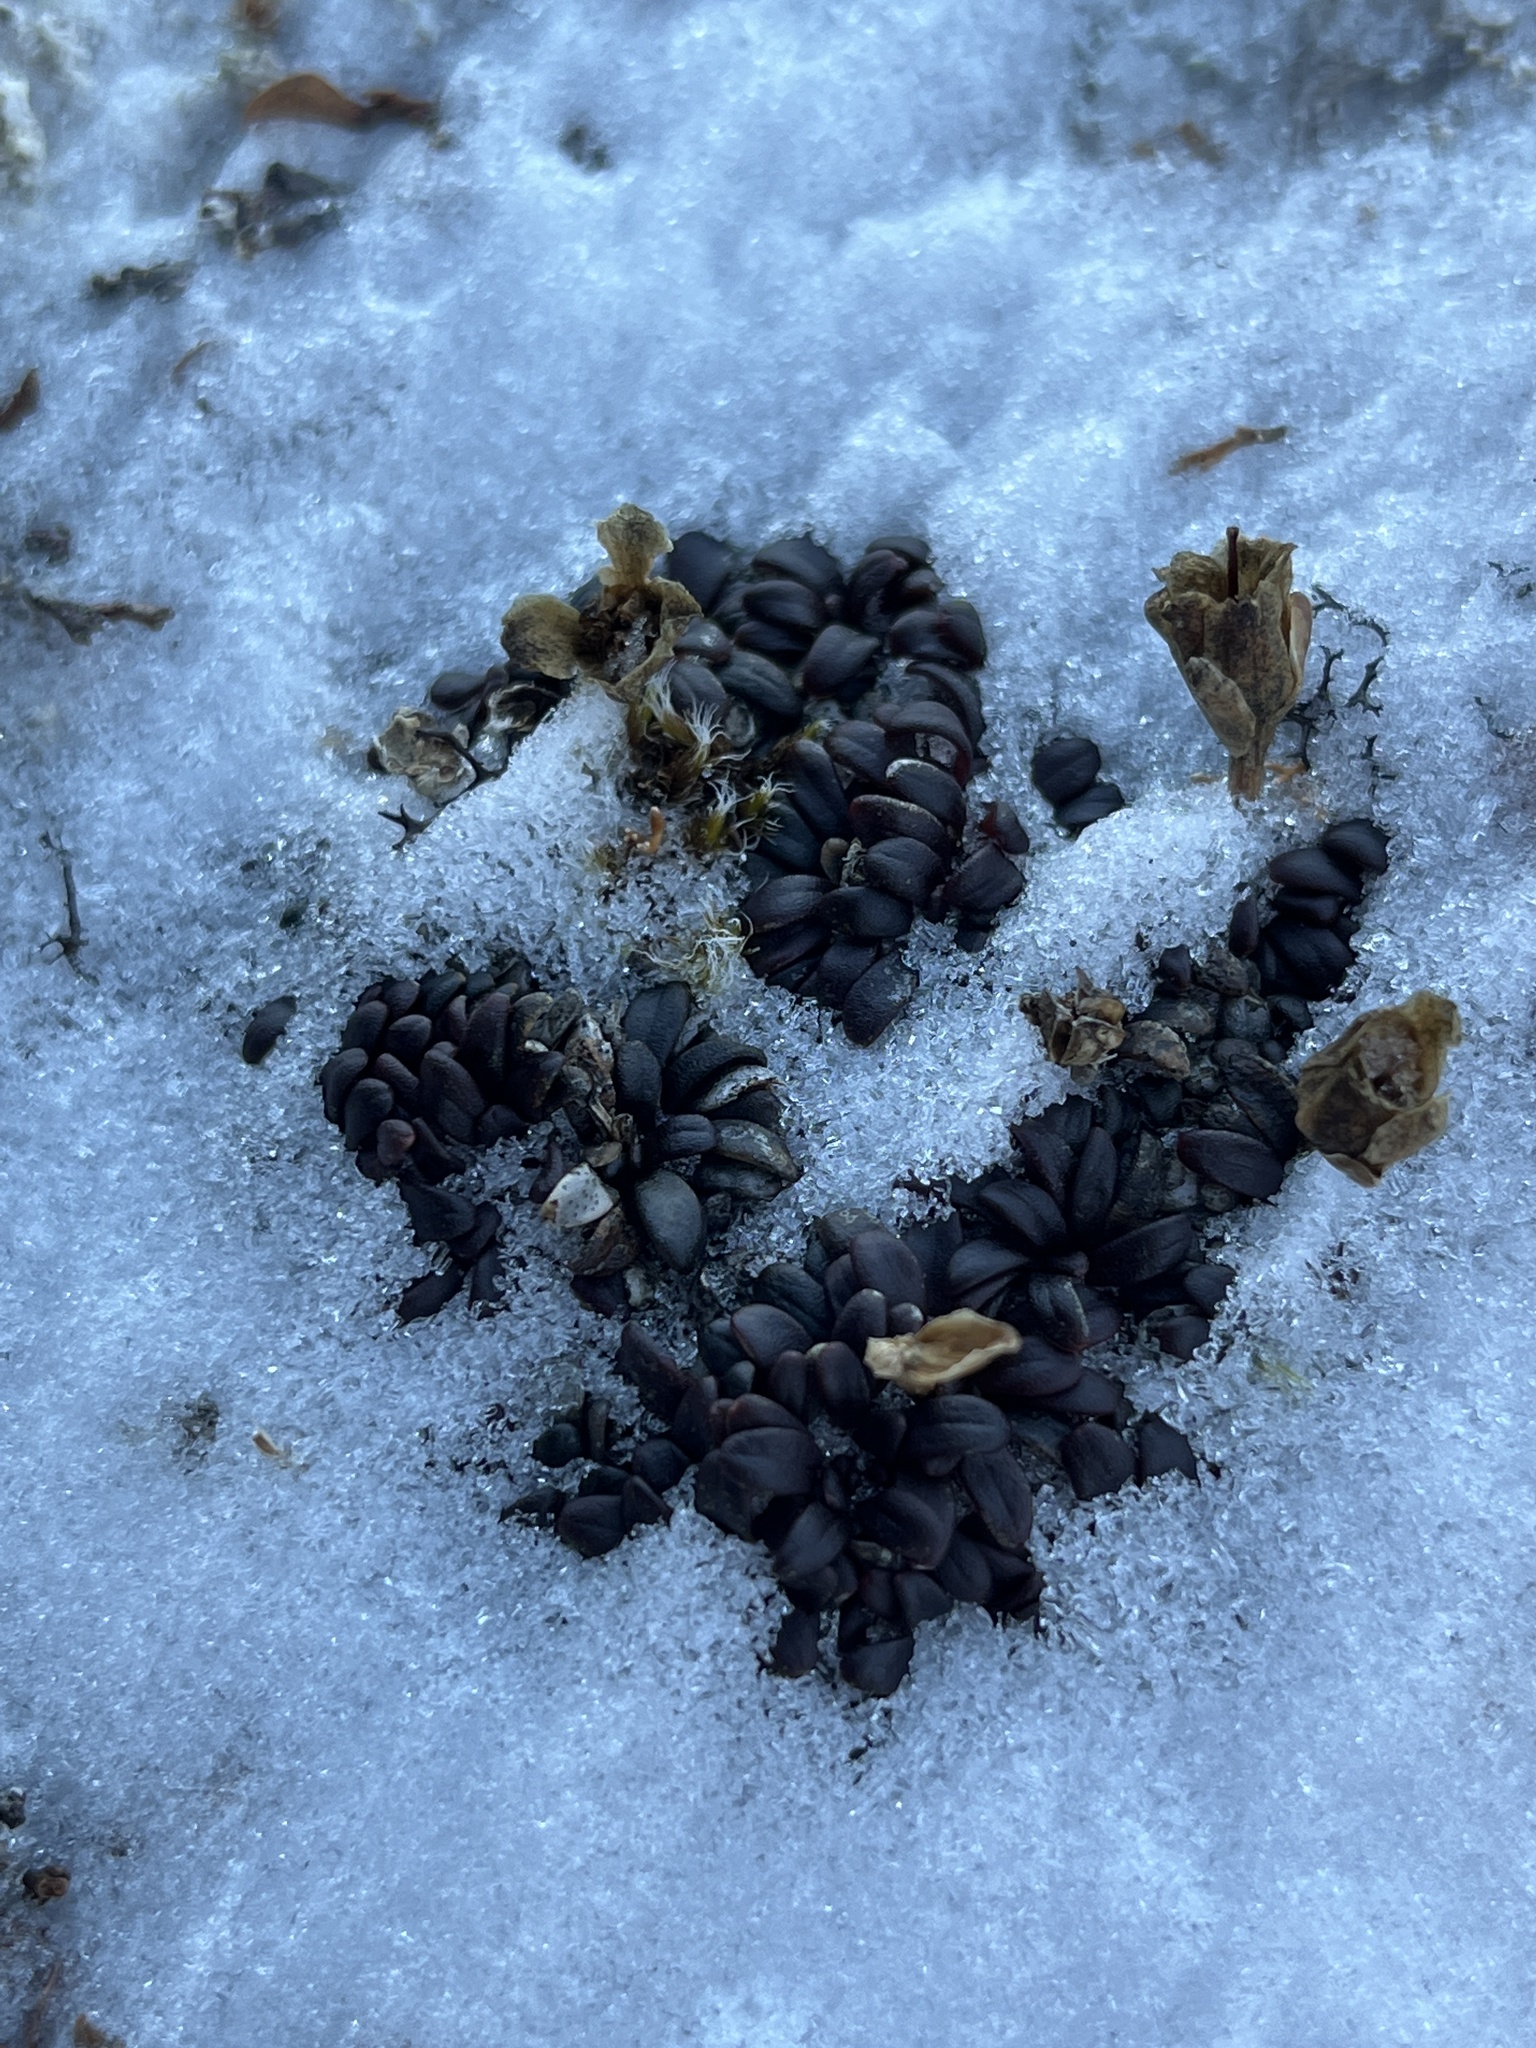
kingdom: Plantae
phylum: Tracheophyta
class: Magnoliopsida
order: Ericales
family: Diapensiaceae
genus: Diapensia
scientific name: Diapensia lapponica
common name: Diapensia
